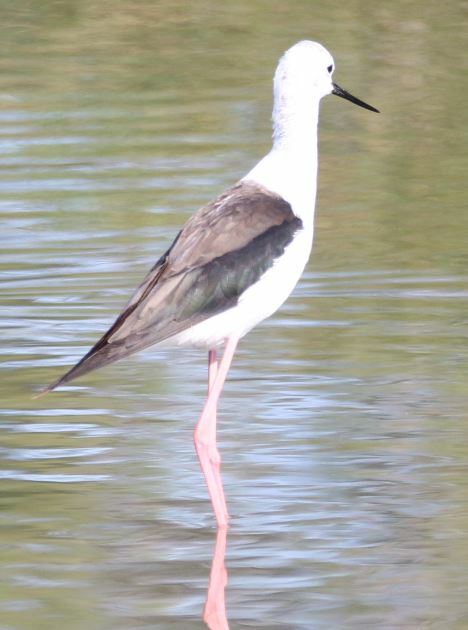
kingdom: Animalia
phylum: Chordata
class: Aves
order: Charadriiformes
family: Recurvirostridae
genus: Himantopus
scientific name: Himantopus himantopus
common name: Black-winged stilt
